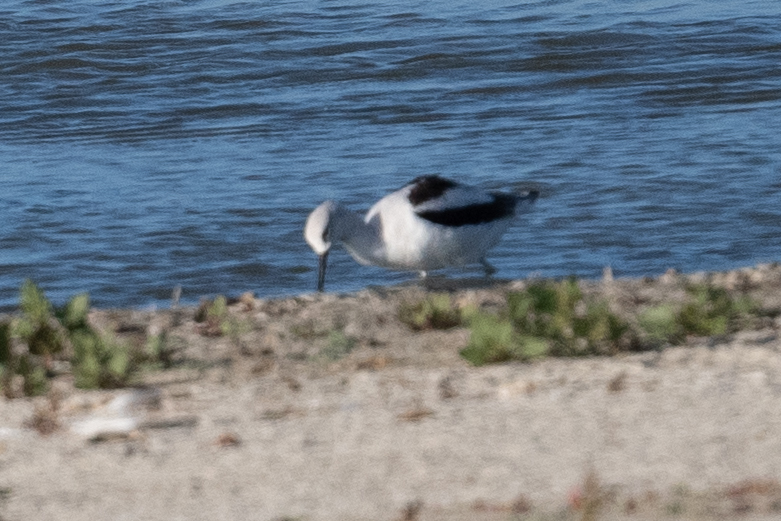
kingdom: Animalia
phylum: Chordata
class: Aves
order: Charadriiformes
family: Recurvirostridae
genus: Recurvirostra
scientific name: Recurvirostra americana
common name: American avocet
